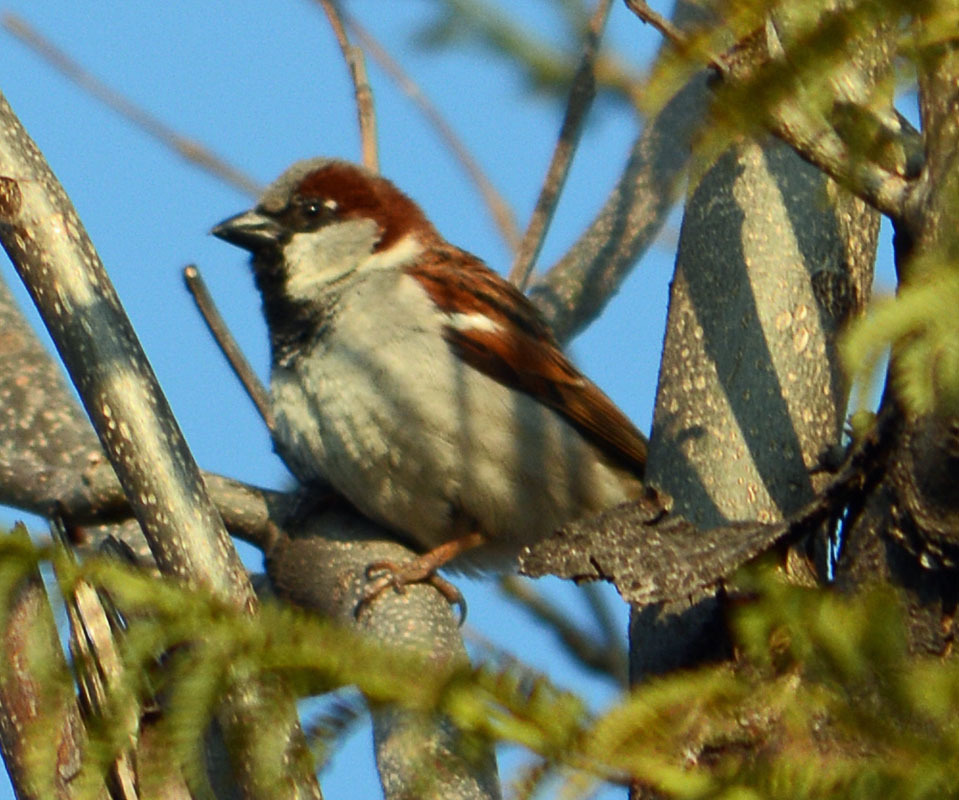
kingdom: Animalia
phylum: Chordata
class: Aves
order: Passeriformes
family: Passeridae
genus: Passer
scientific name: Passer domesticus
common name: House sparrow
